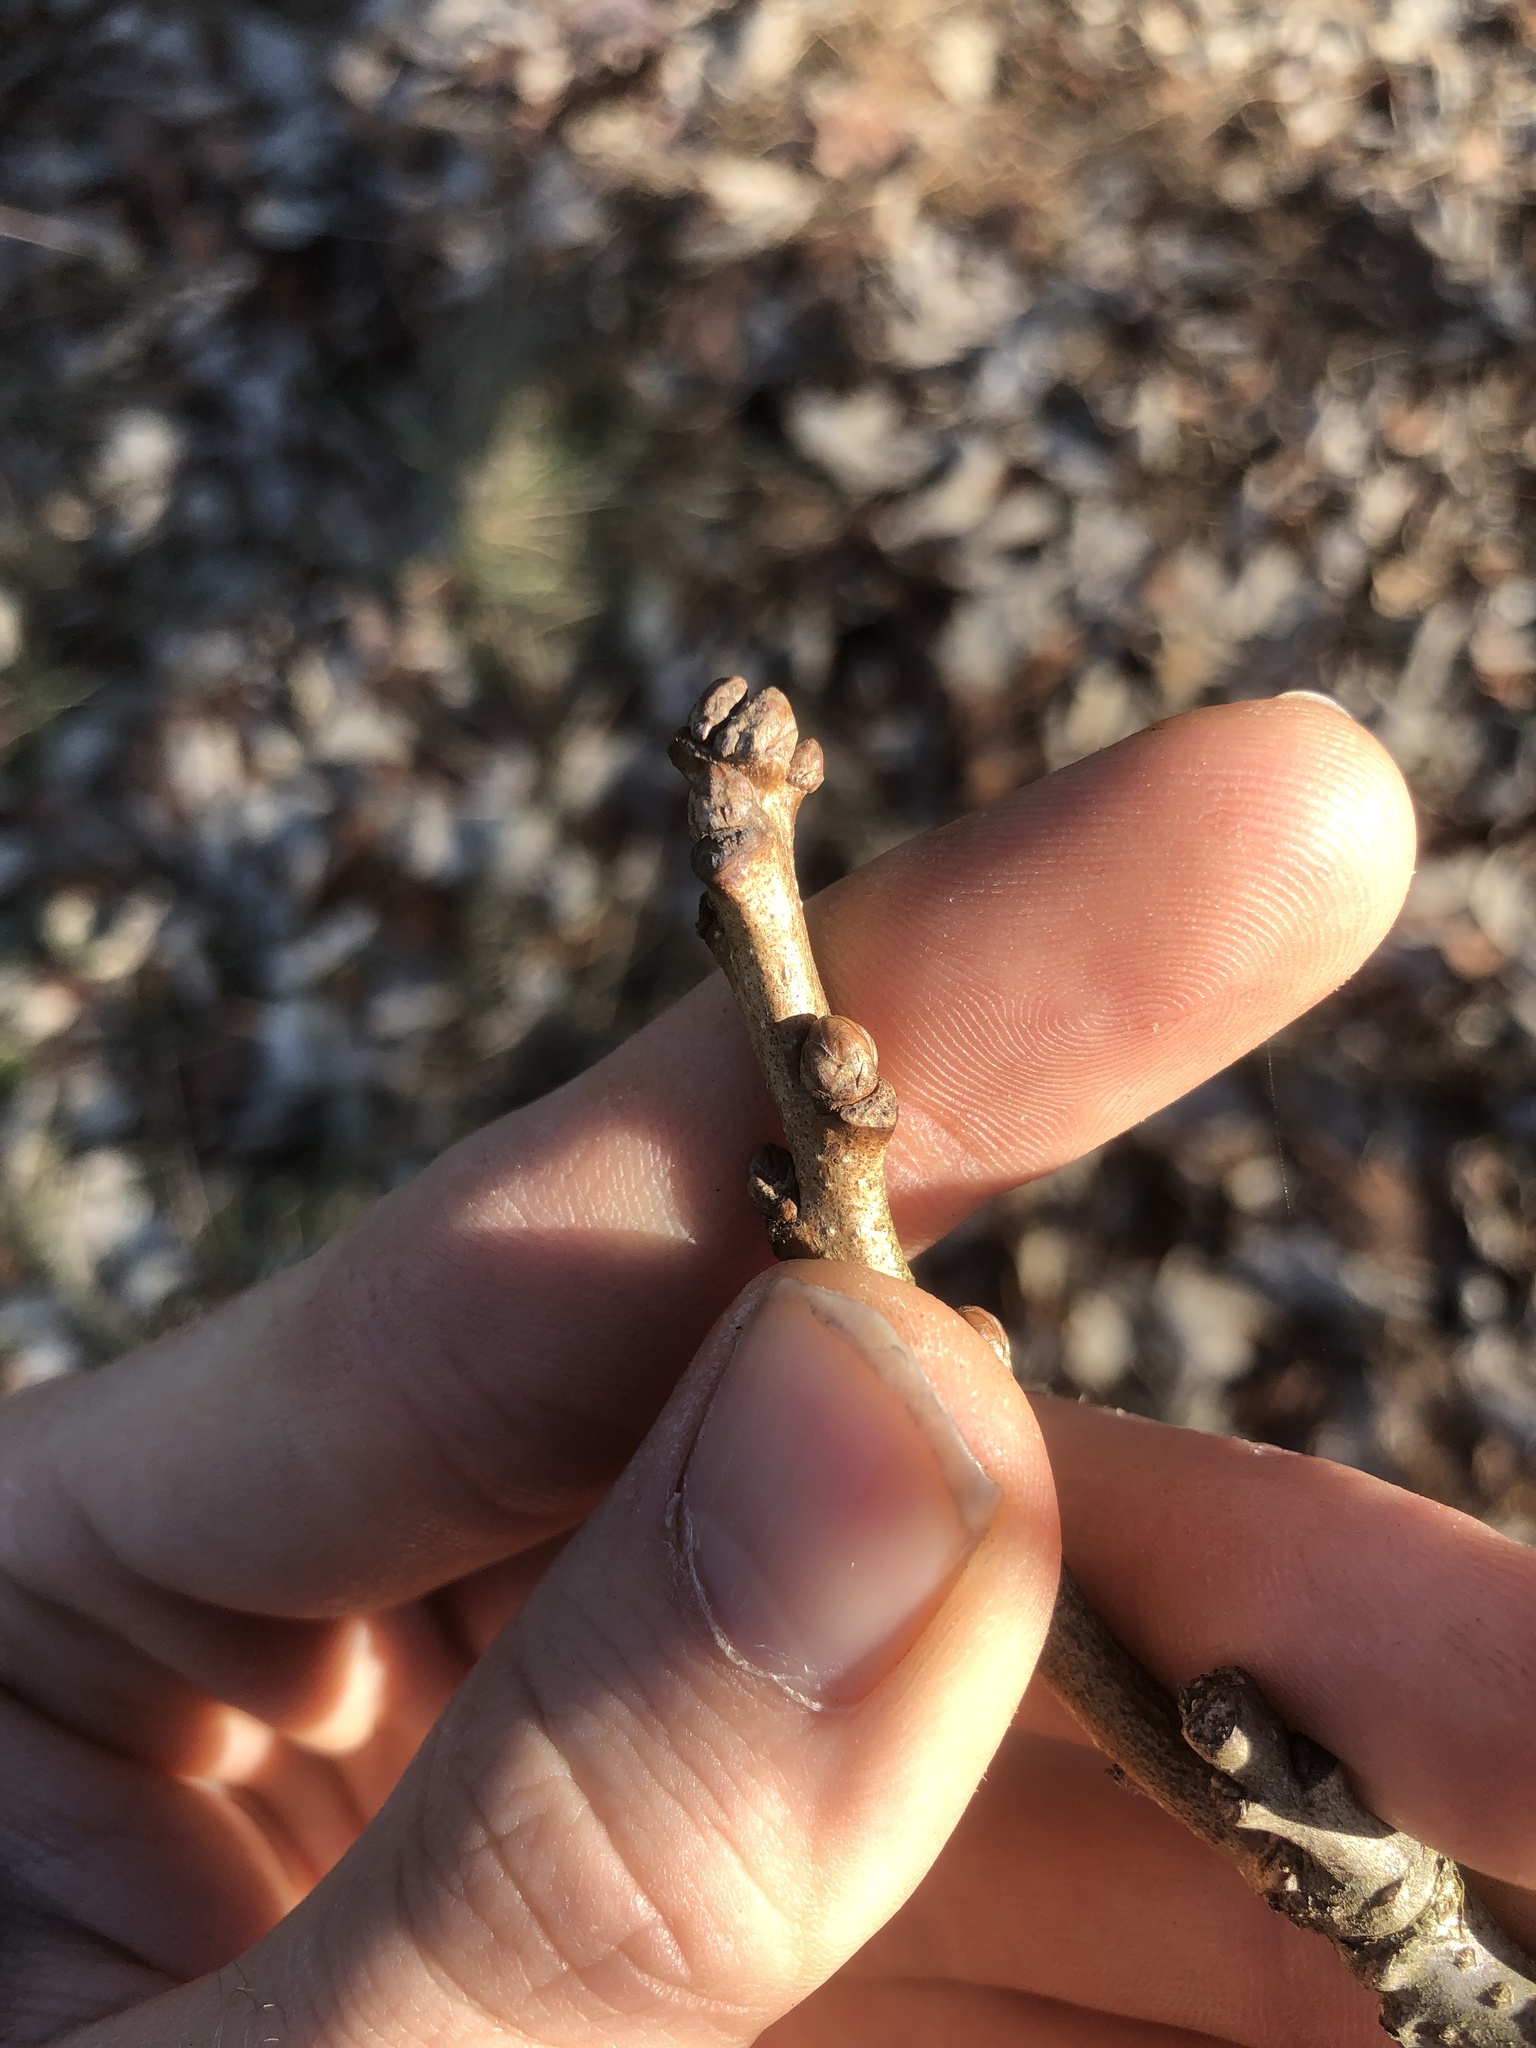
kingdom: Plantae
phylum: Tracheophyta
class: Magnoliopsida
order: Fagales
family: Fagaceae
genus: Quercus
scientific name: Quercus bicolor
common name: Swamp white oak
